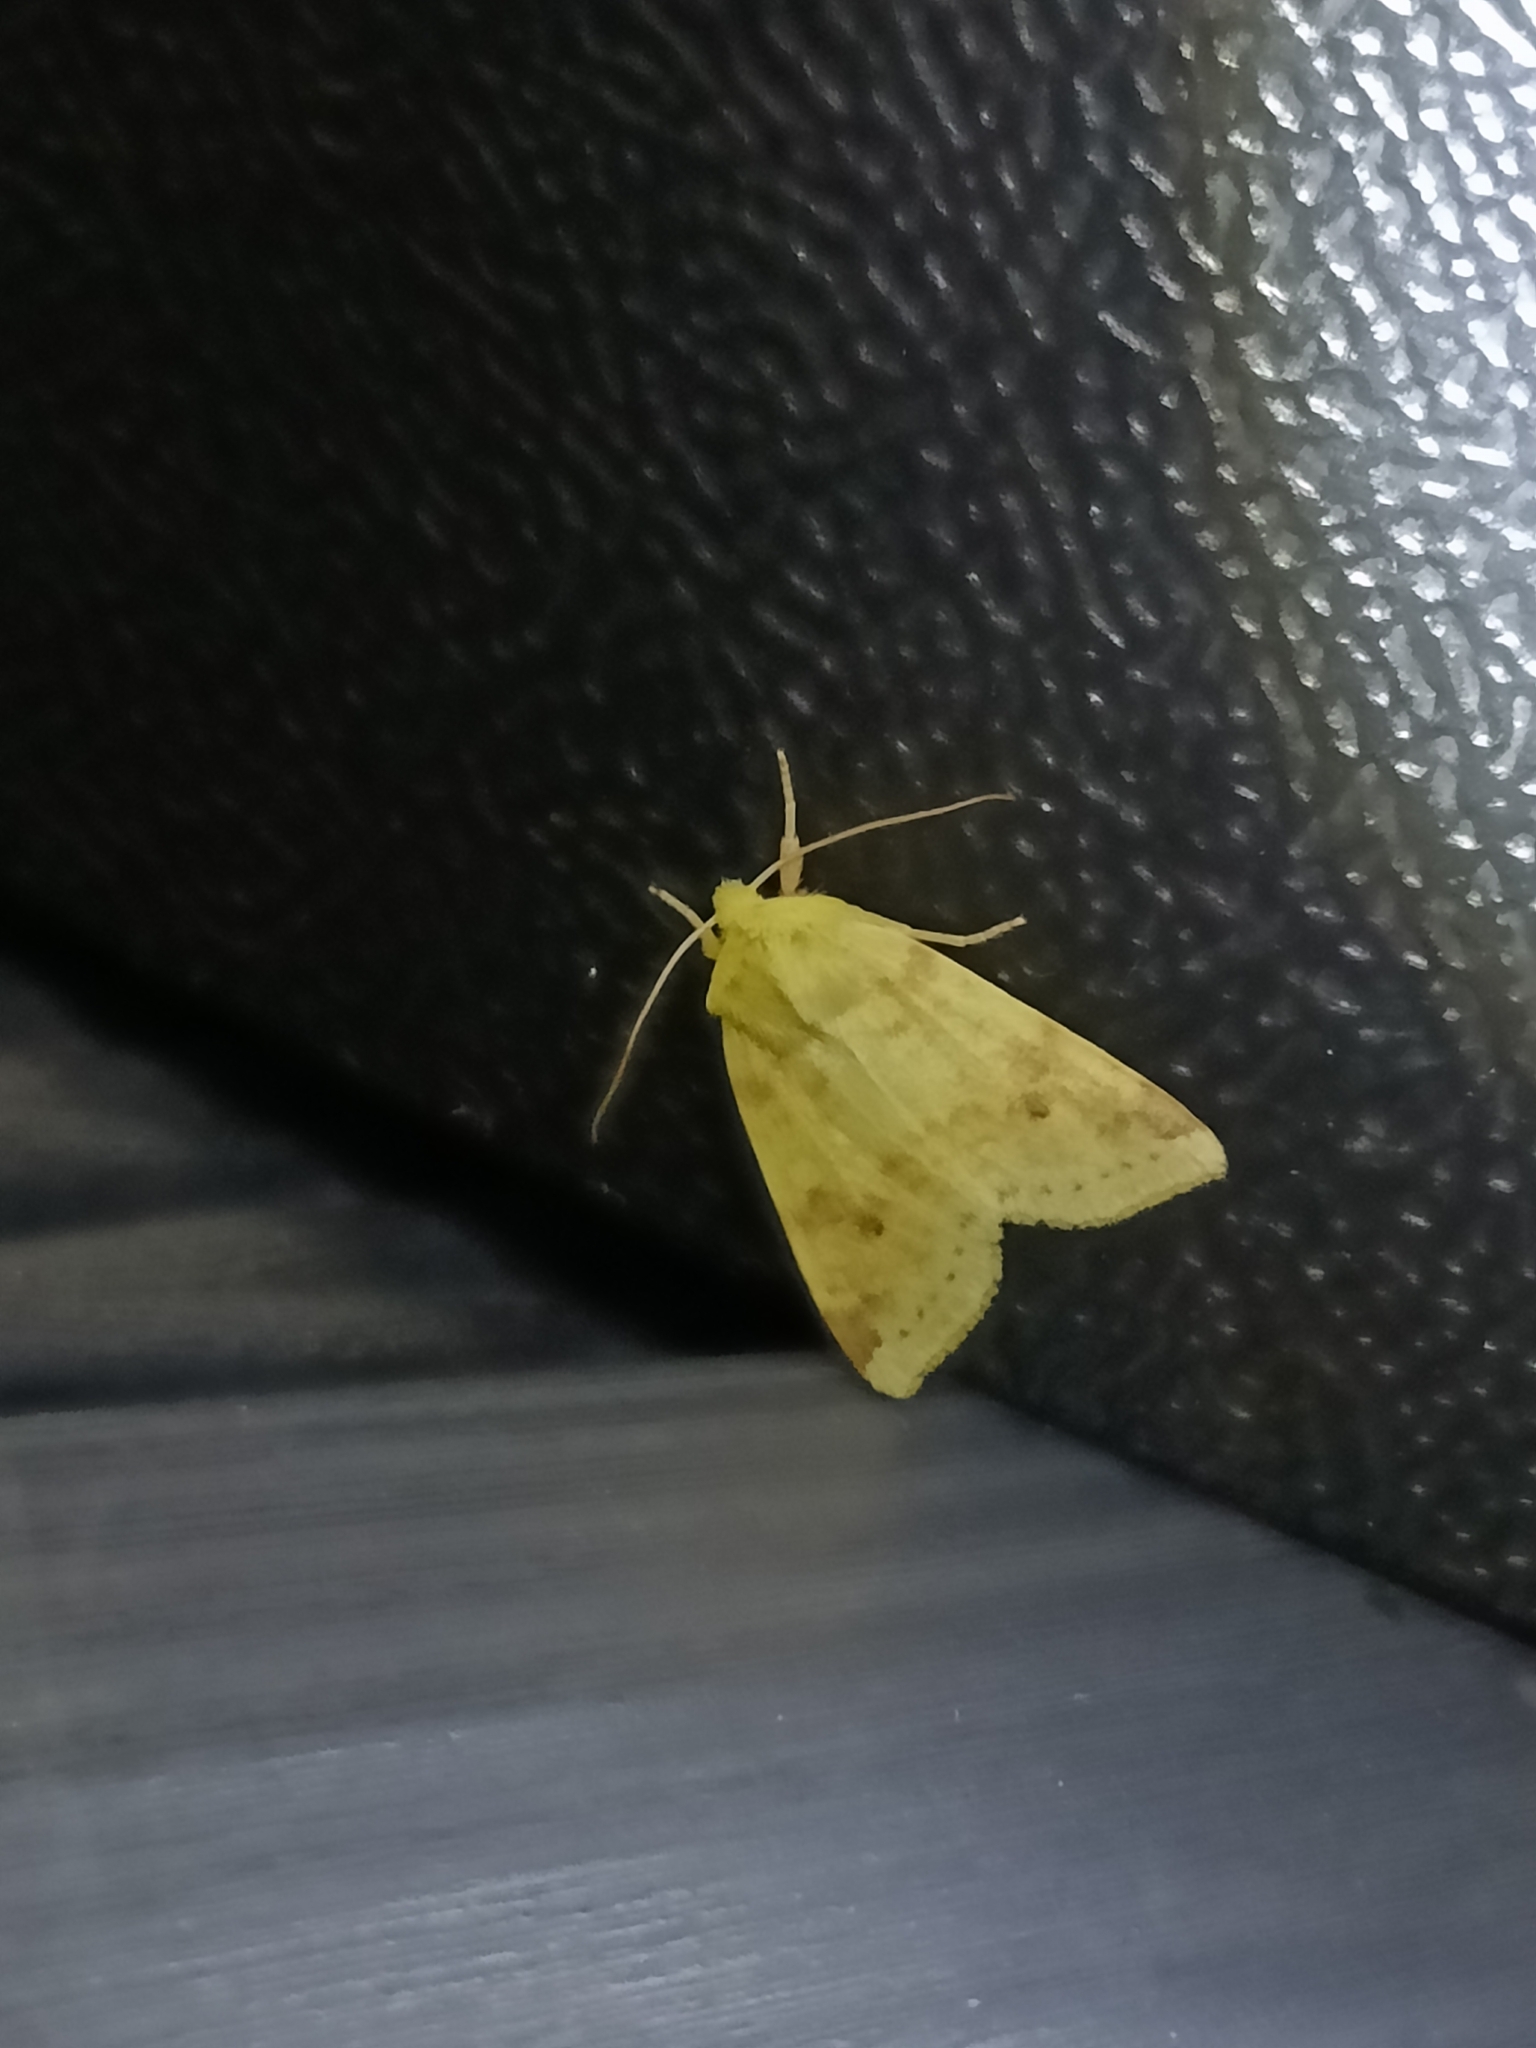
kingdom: Animalia
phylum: Arthropoda
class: Insecta
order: Lepidoptera
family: Noctuidae
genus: Xanthia
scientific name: Xanthia icteritia
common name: The sallow
